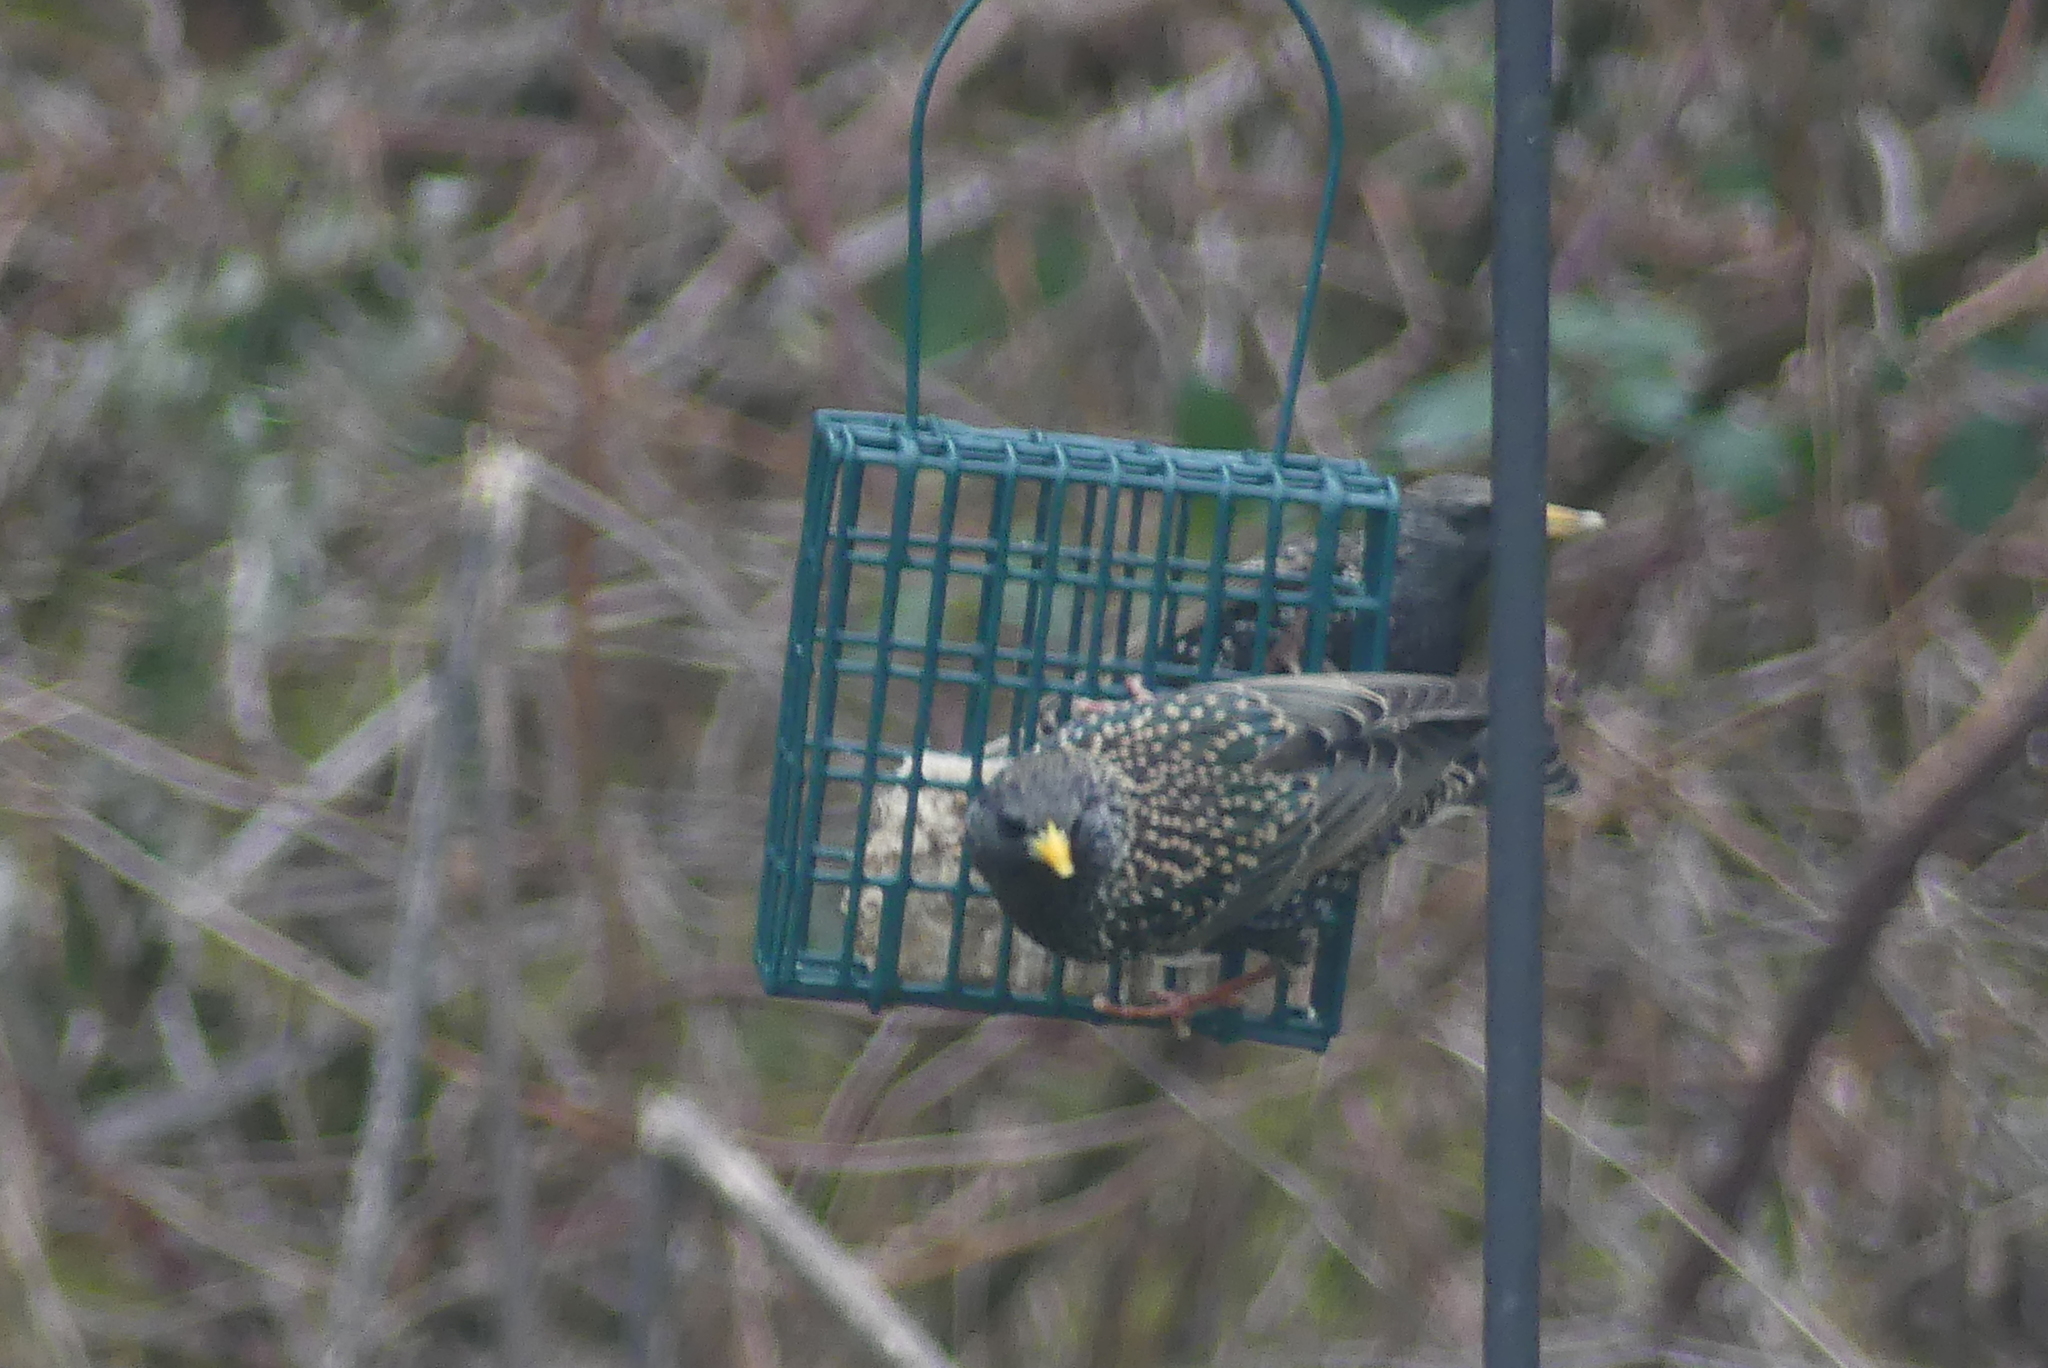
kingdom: Animalia
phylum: Chordata
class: Aves
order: Passeriformes
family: Sturnidae
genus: Sturnus
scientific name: Sturnus vulgaris
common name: Common starling
